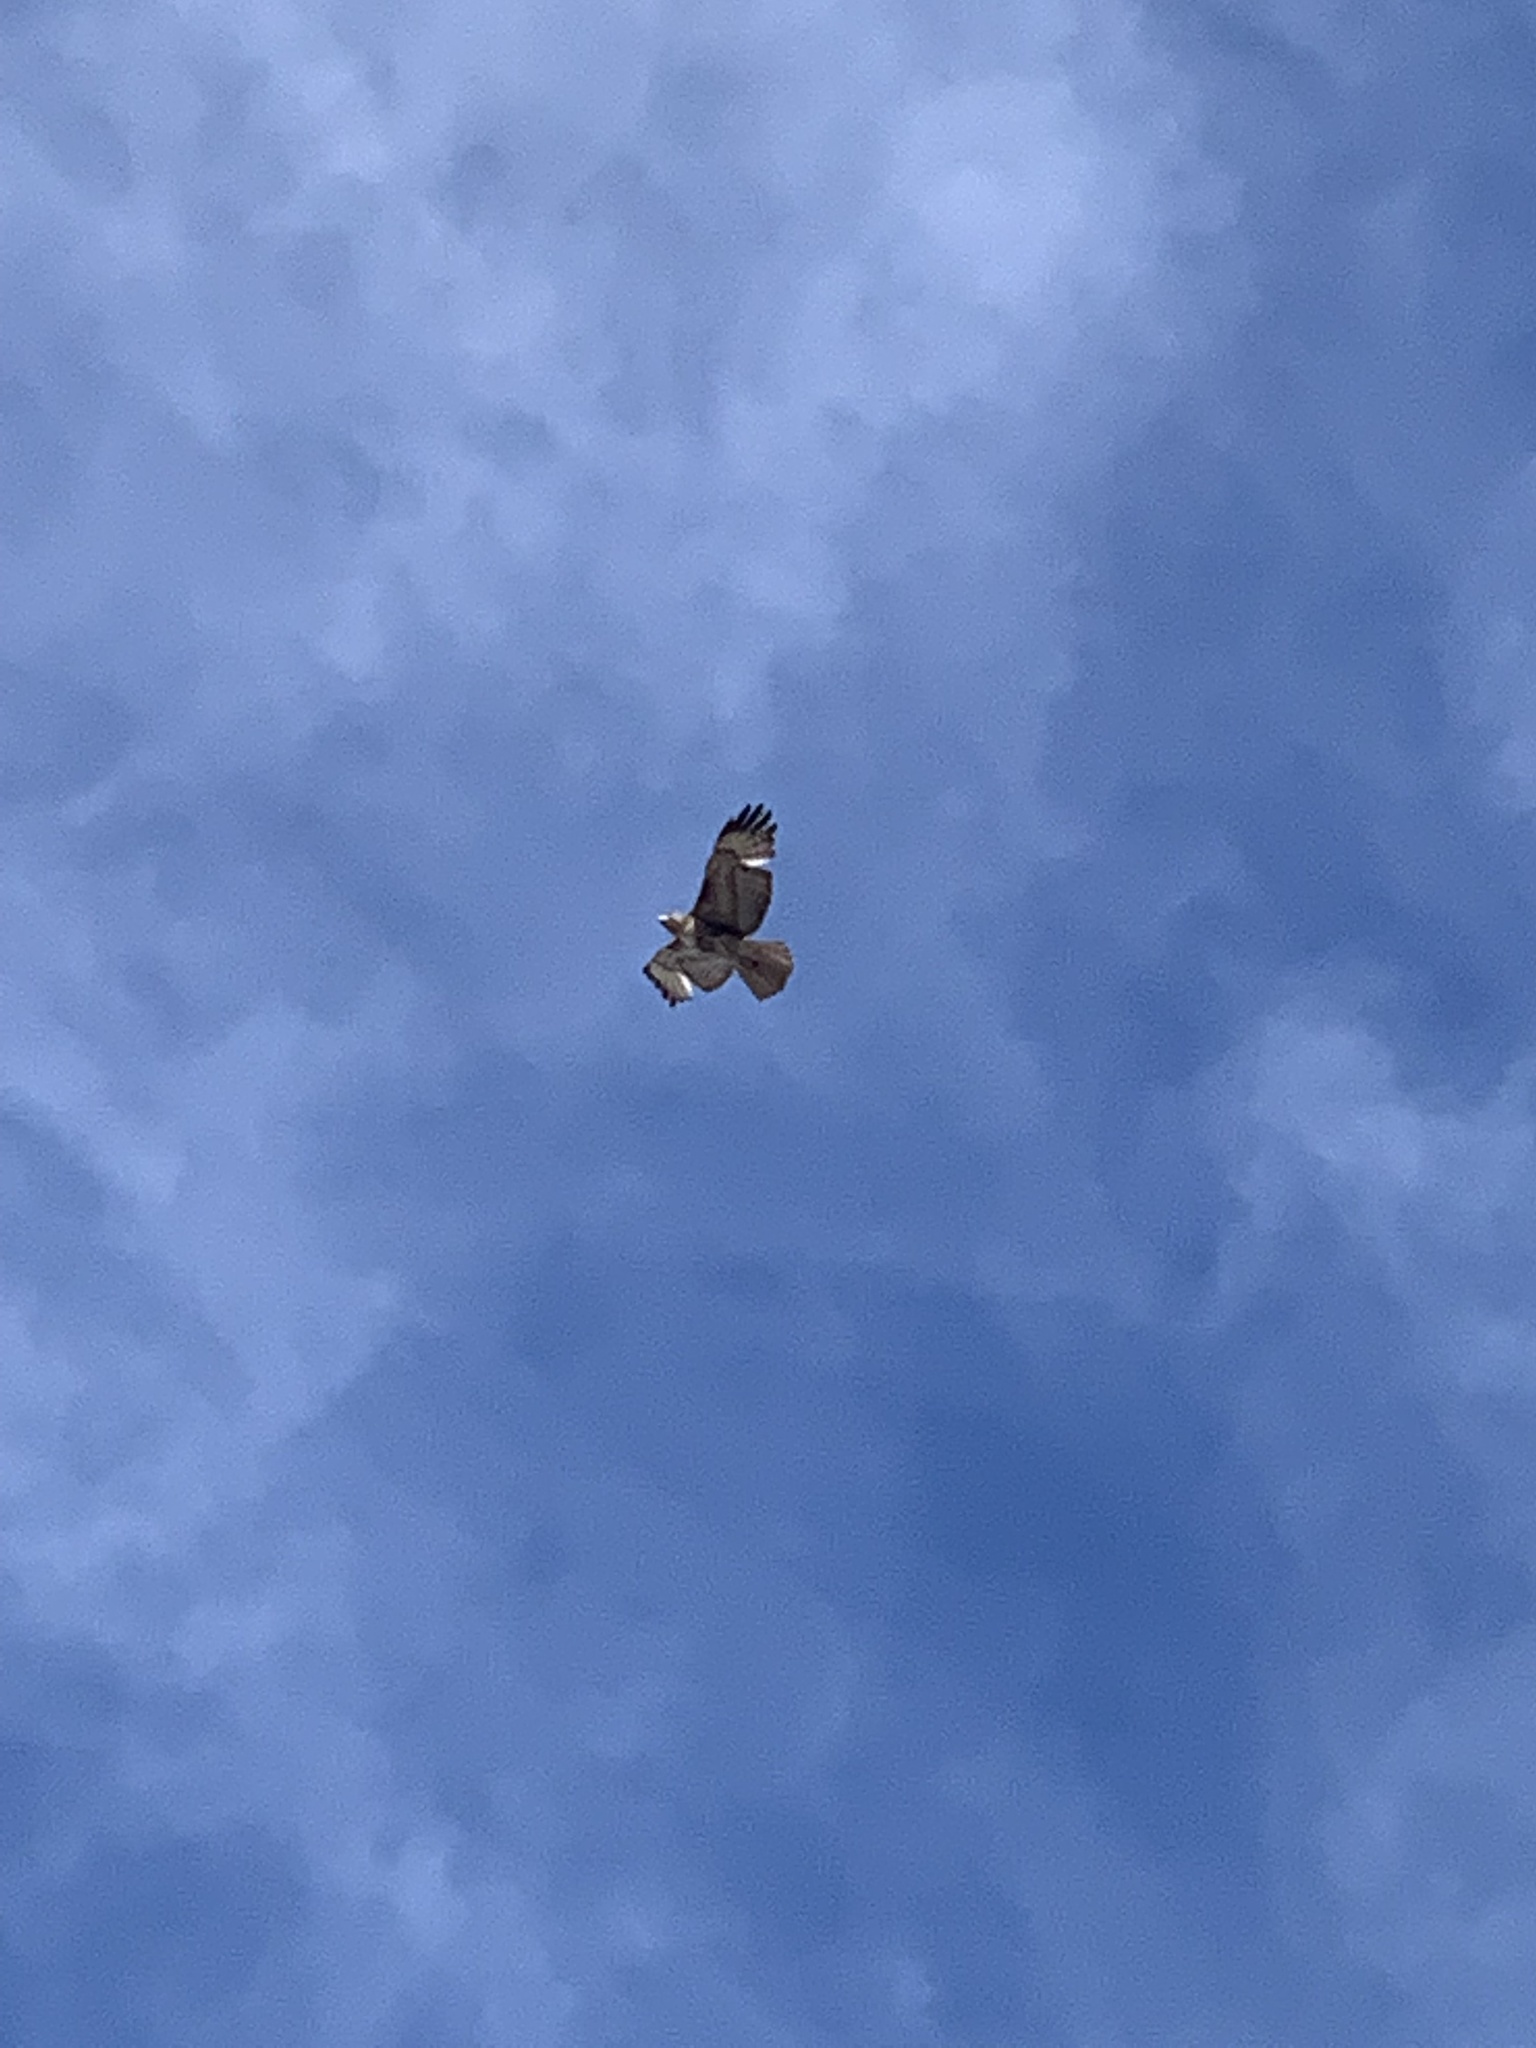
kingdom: Animalia
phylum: Chordata
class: Aves
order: Accipitriformes
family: Accipitridae
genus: Buteo
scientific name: Buteo jamaicensis
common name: Red-tailed hawk
